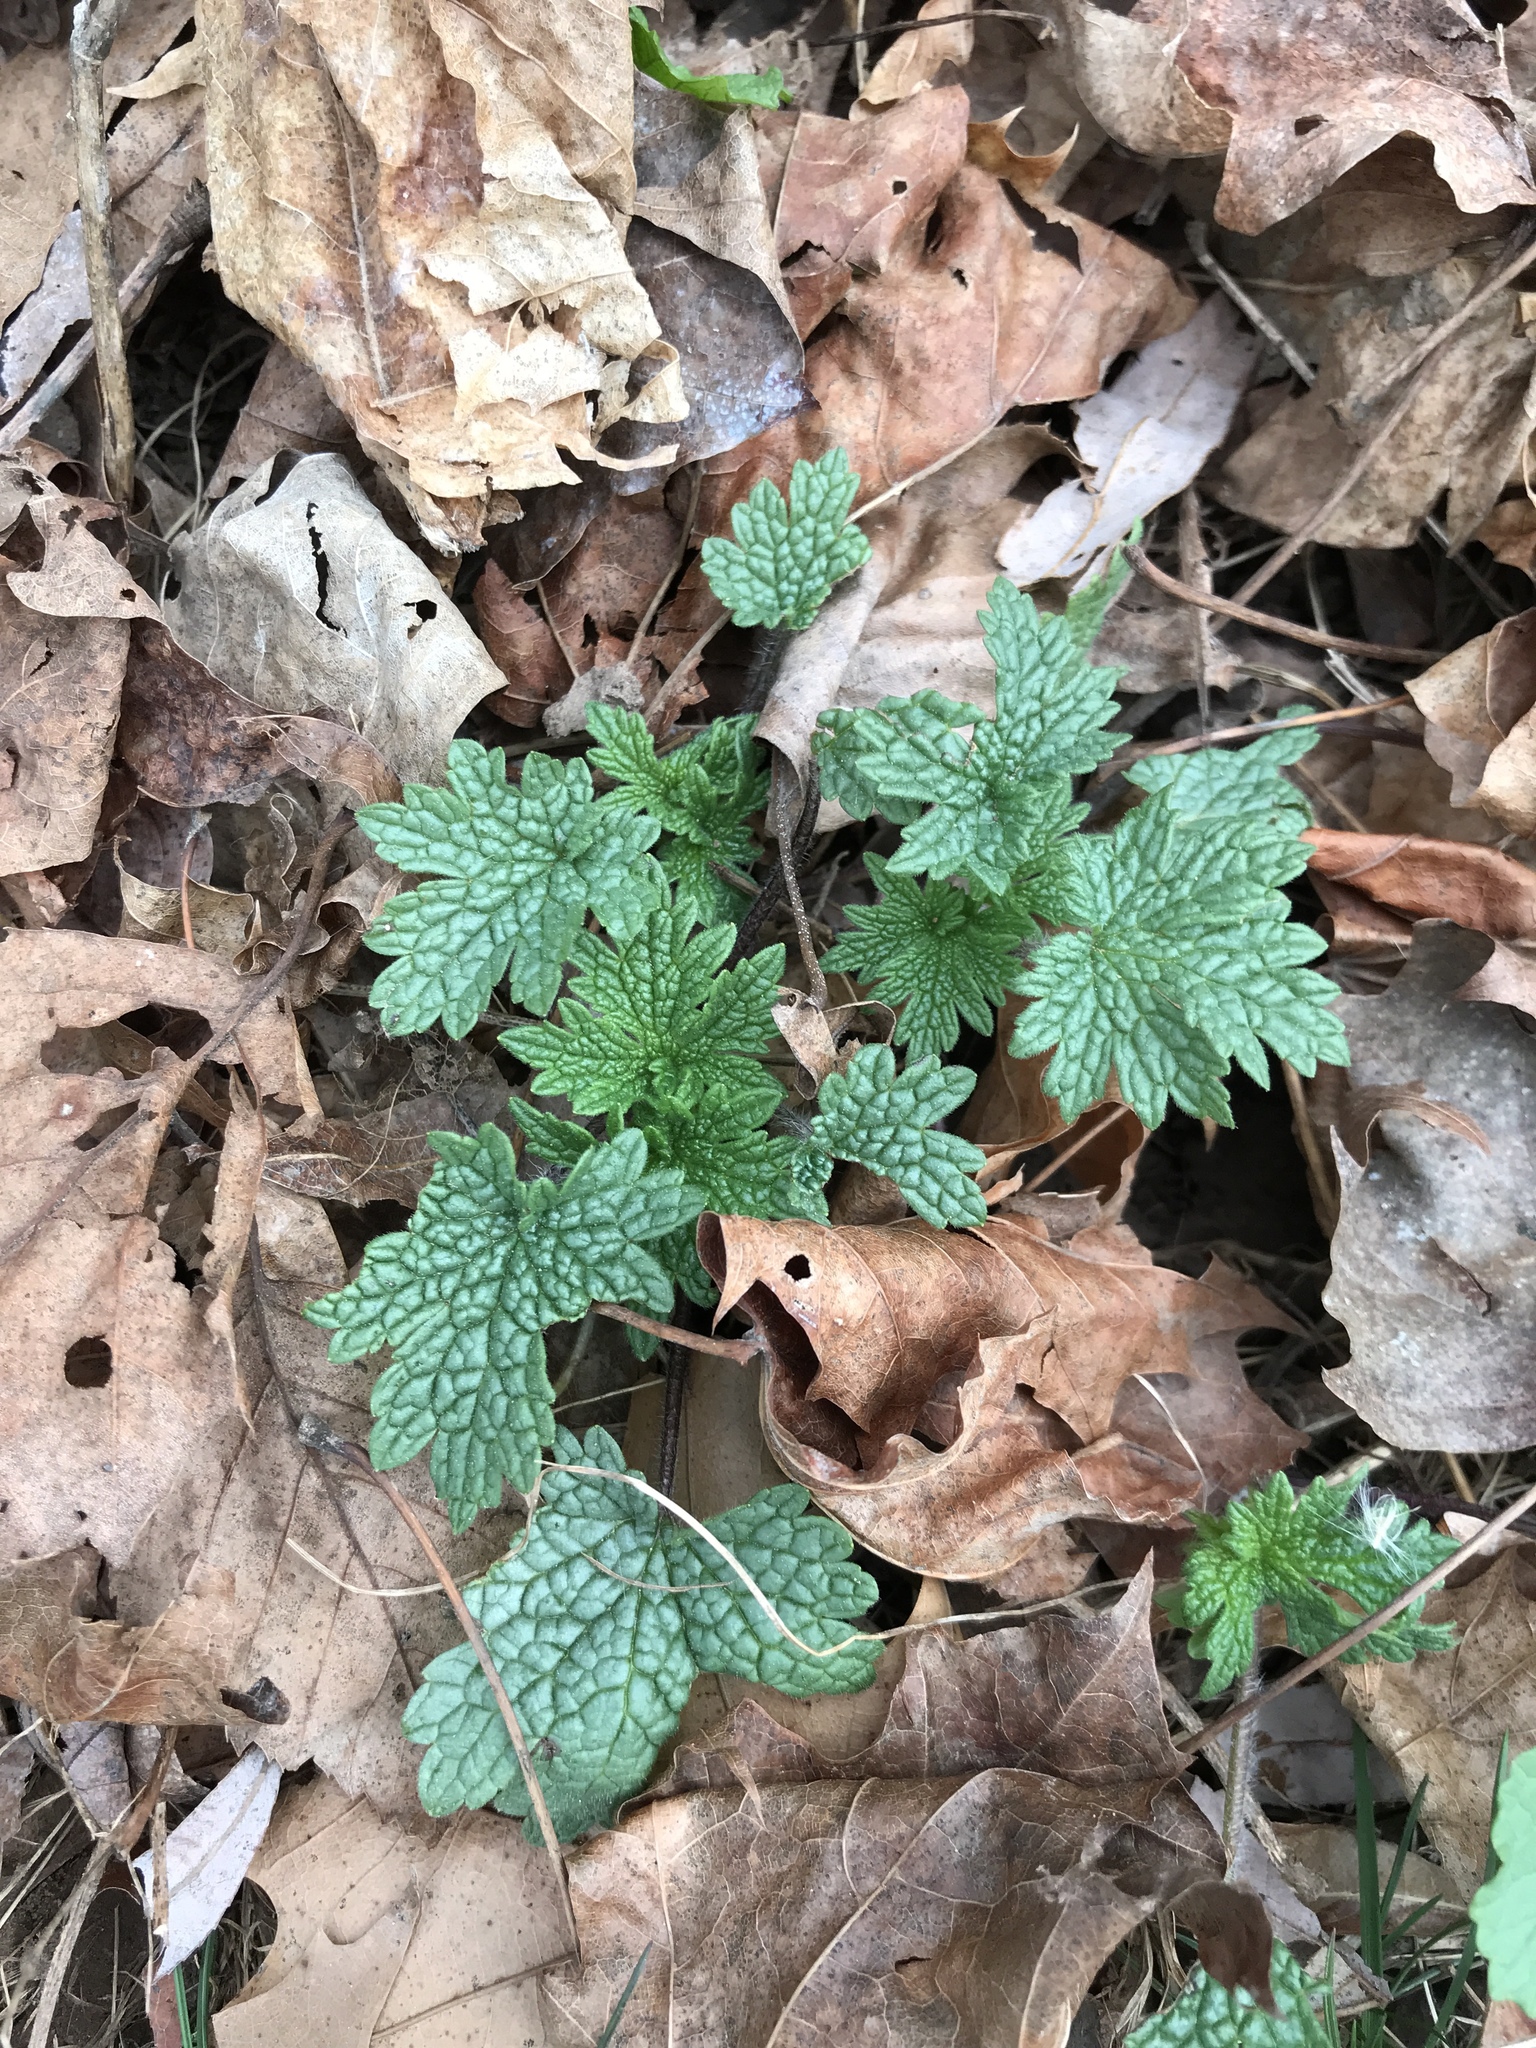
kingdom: Plantae
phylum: Tracheophyta
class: Magnoliopsida
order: Lamiales
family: Lamiaceae
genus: Leonurus
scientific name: Leonurus cardiaca
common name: Motherwort
